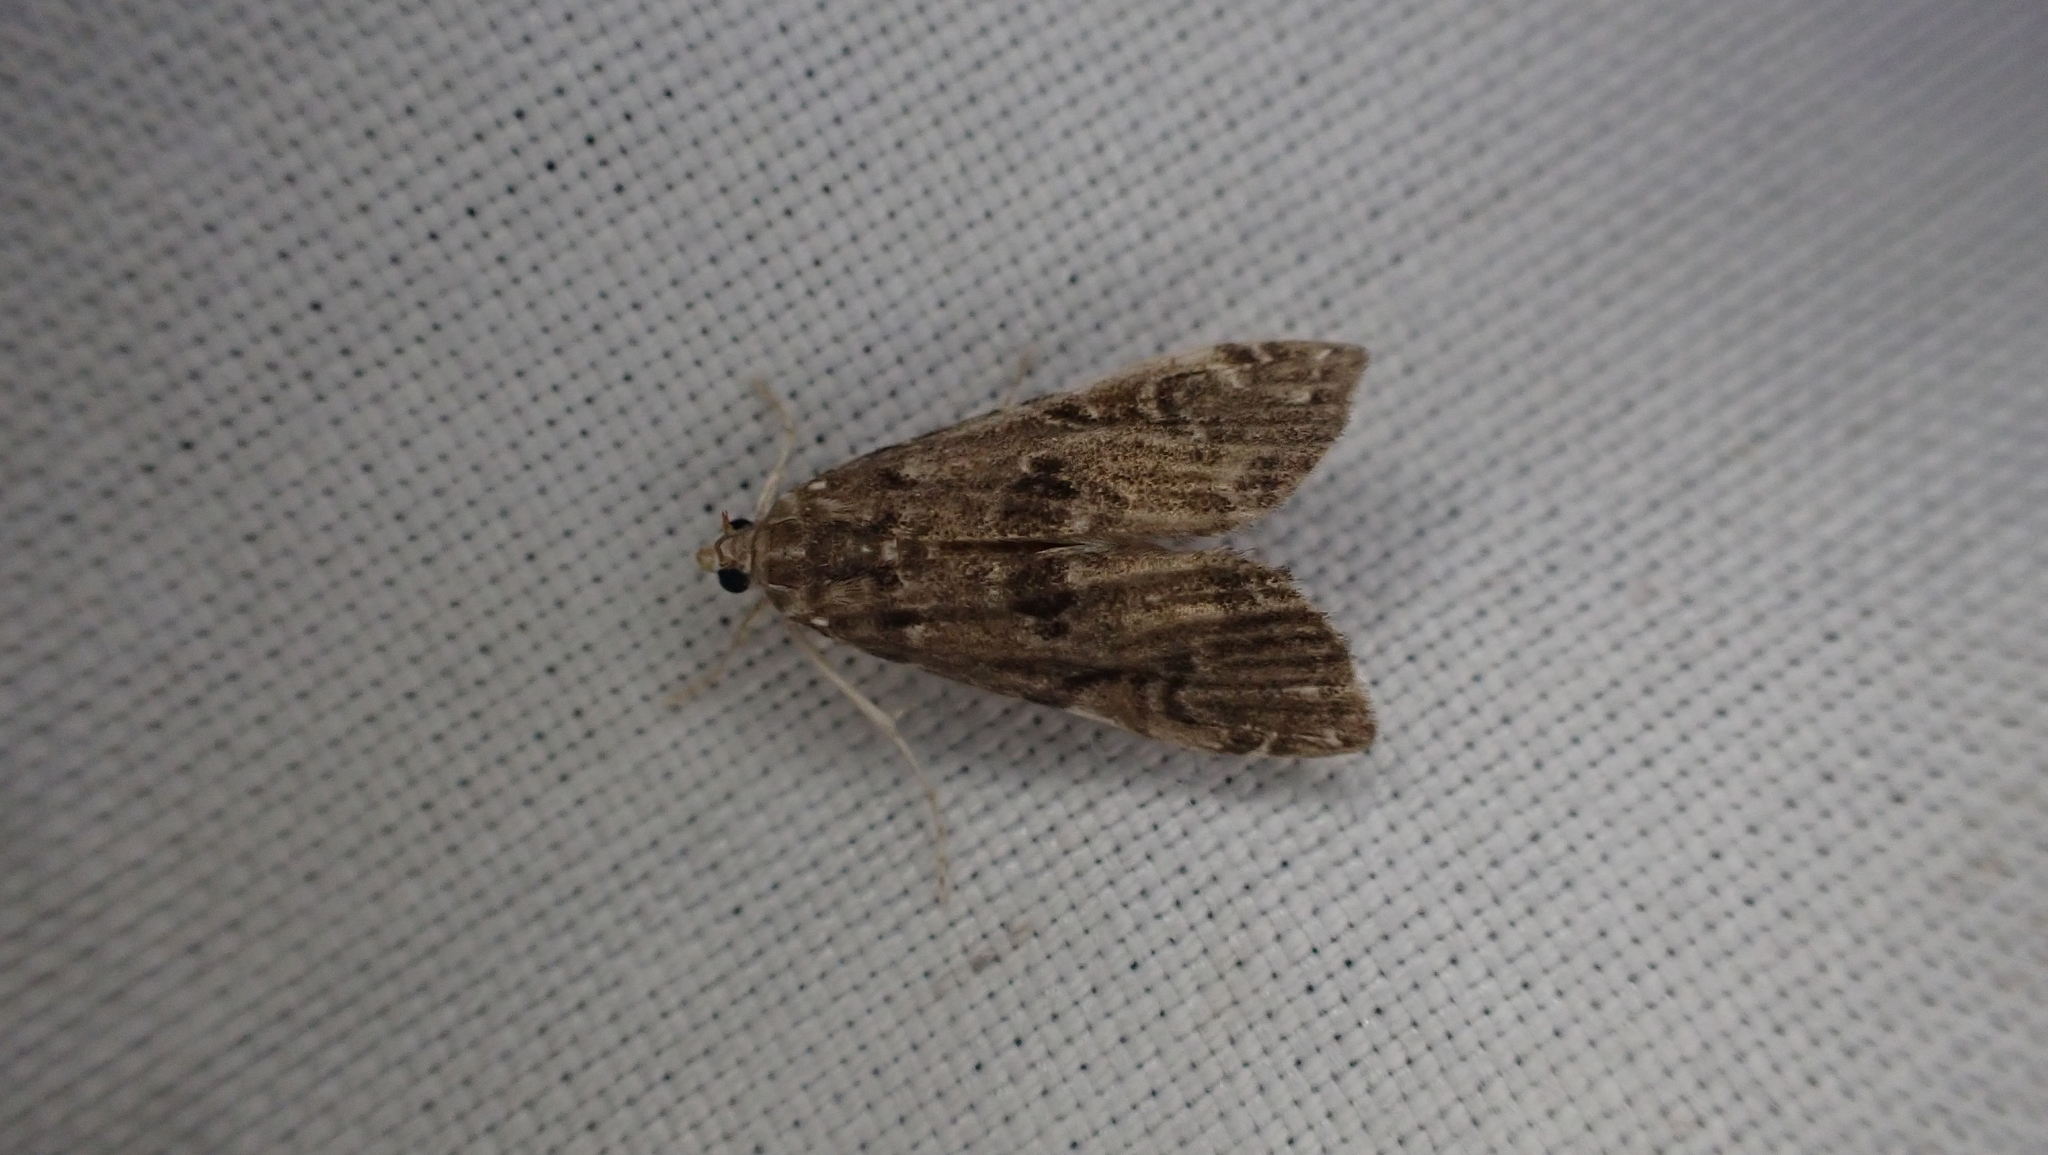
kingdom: Animalia
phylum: Arthropoda
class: Insecta
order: Lepidoptera
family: Crambidae
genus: Elophila
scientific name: Elophila gyralis
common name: Waterlily borer moth
